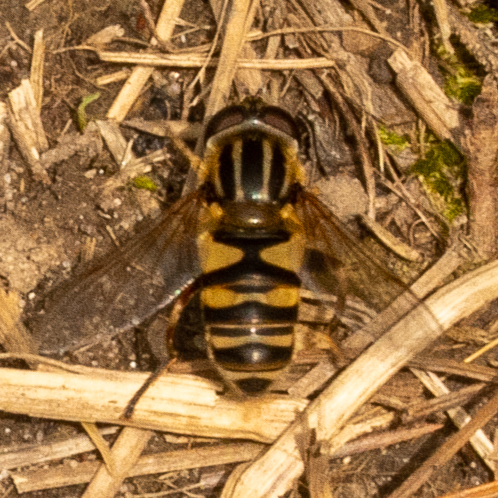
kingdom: Animalia
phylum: Arthropoda
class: Insecta
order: Diptera
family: Syrphidae
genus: Helophilus
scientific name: Helophilus fasciatus
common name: Narrow-headed marsh fly
